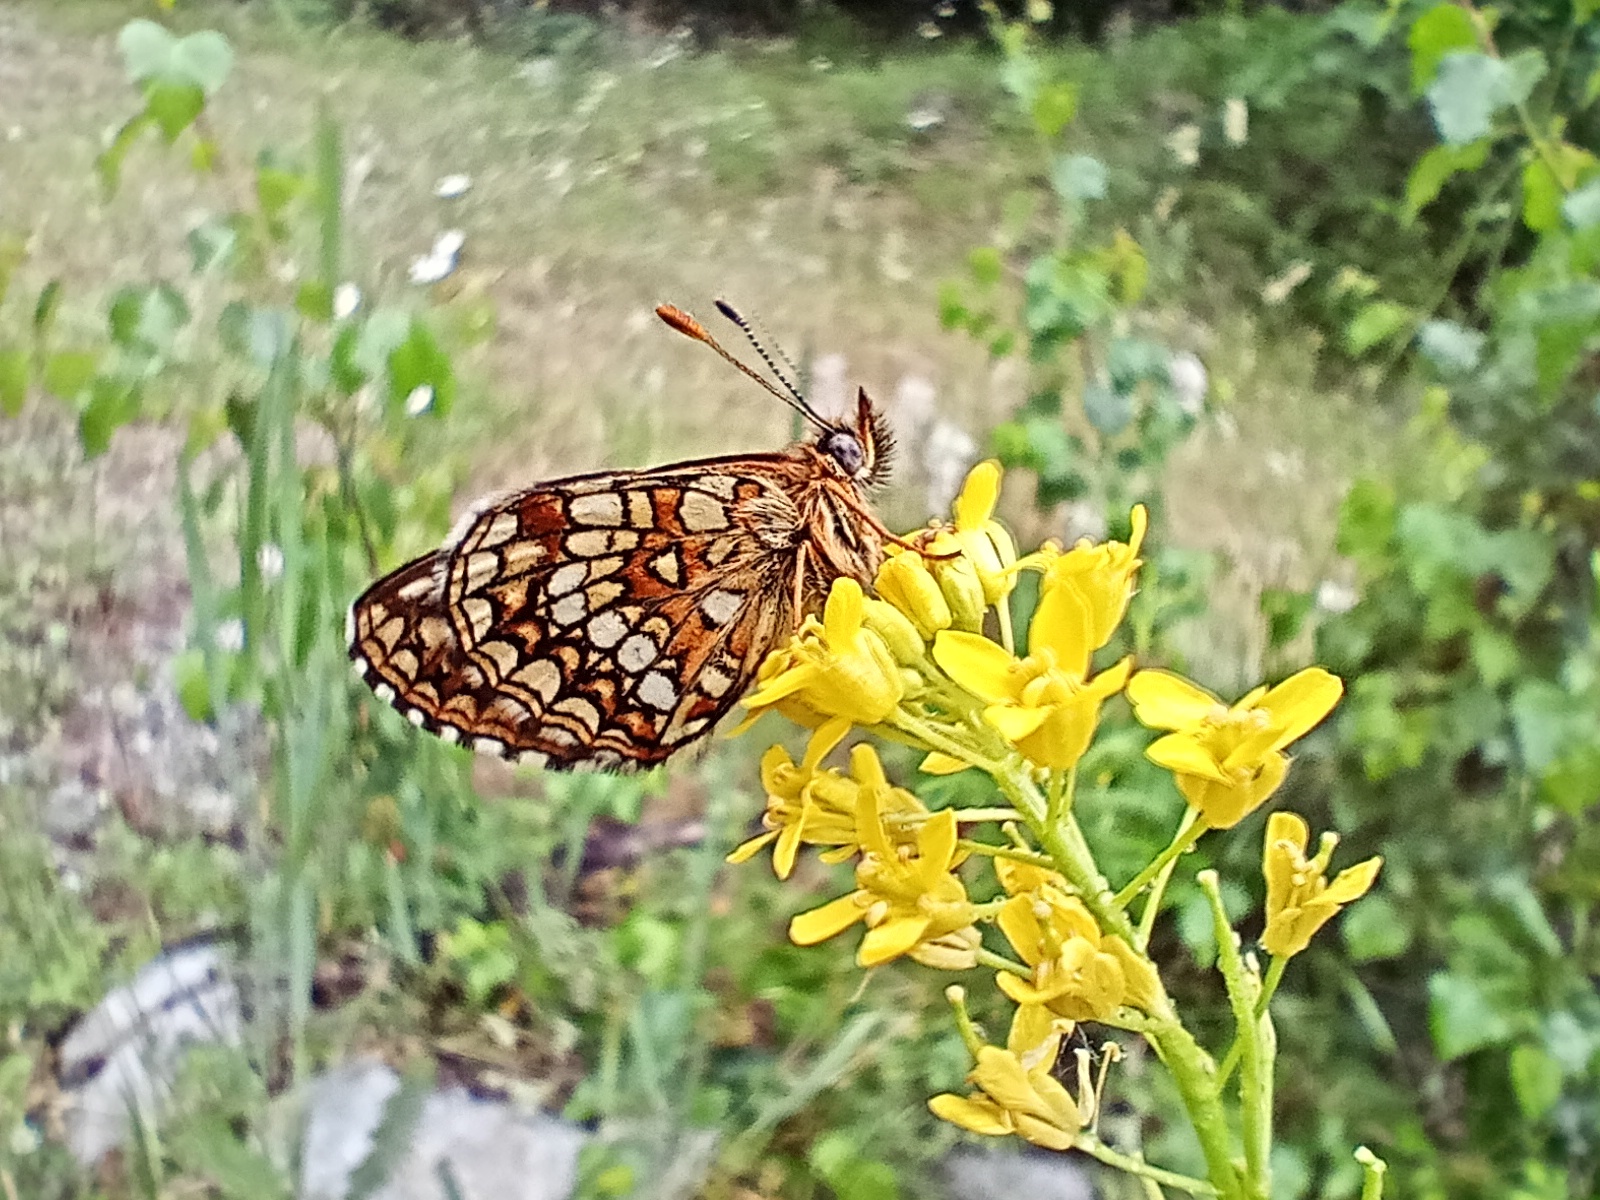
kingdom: Animalia
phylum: Arthropoda
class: Insecta
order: Lepidoptera
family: Nymphalidae
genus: Melitaea
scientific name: Melitaea diamina
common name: False heath fritillary
